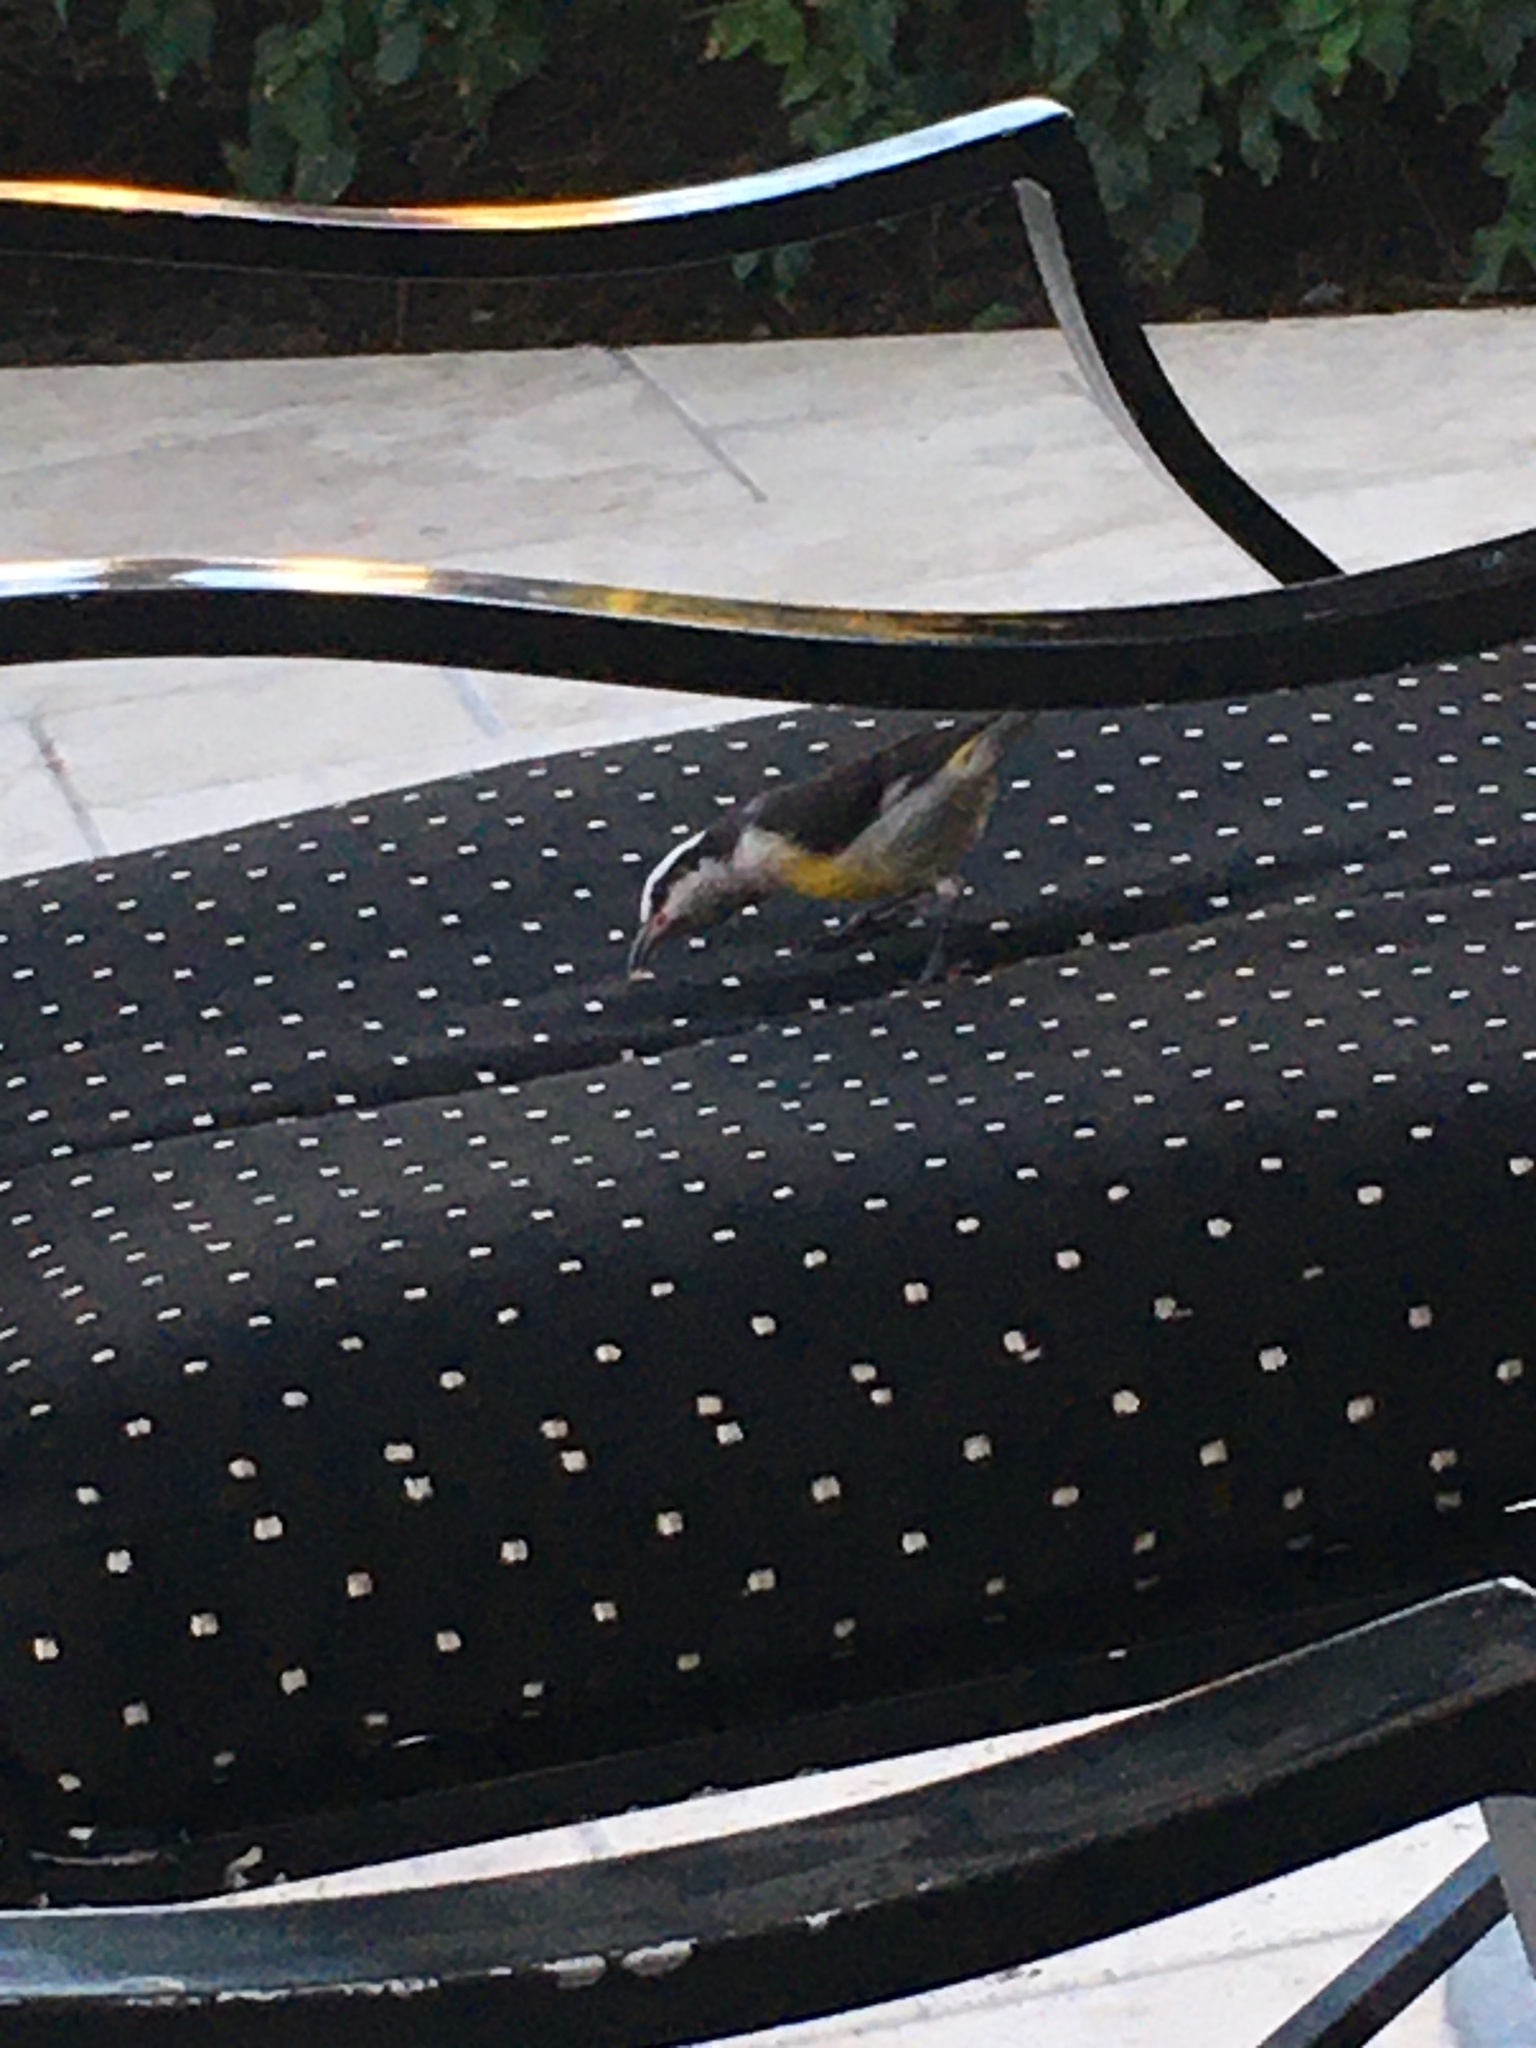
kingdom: Animalia
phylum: Chordata
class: Aves
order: Passeriformes
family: Thraupidae
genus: Coereba
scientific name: Coereba flaveola
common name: Bananaquit
